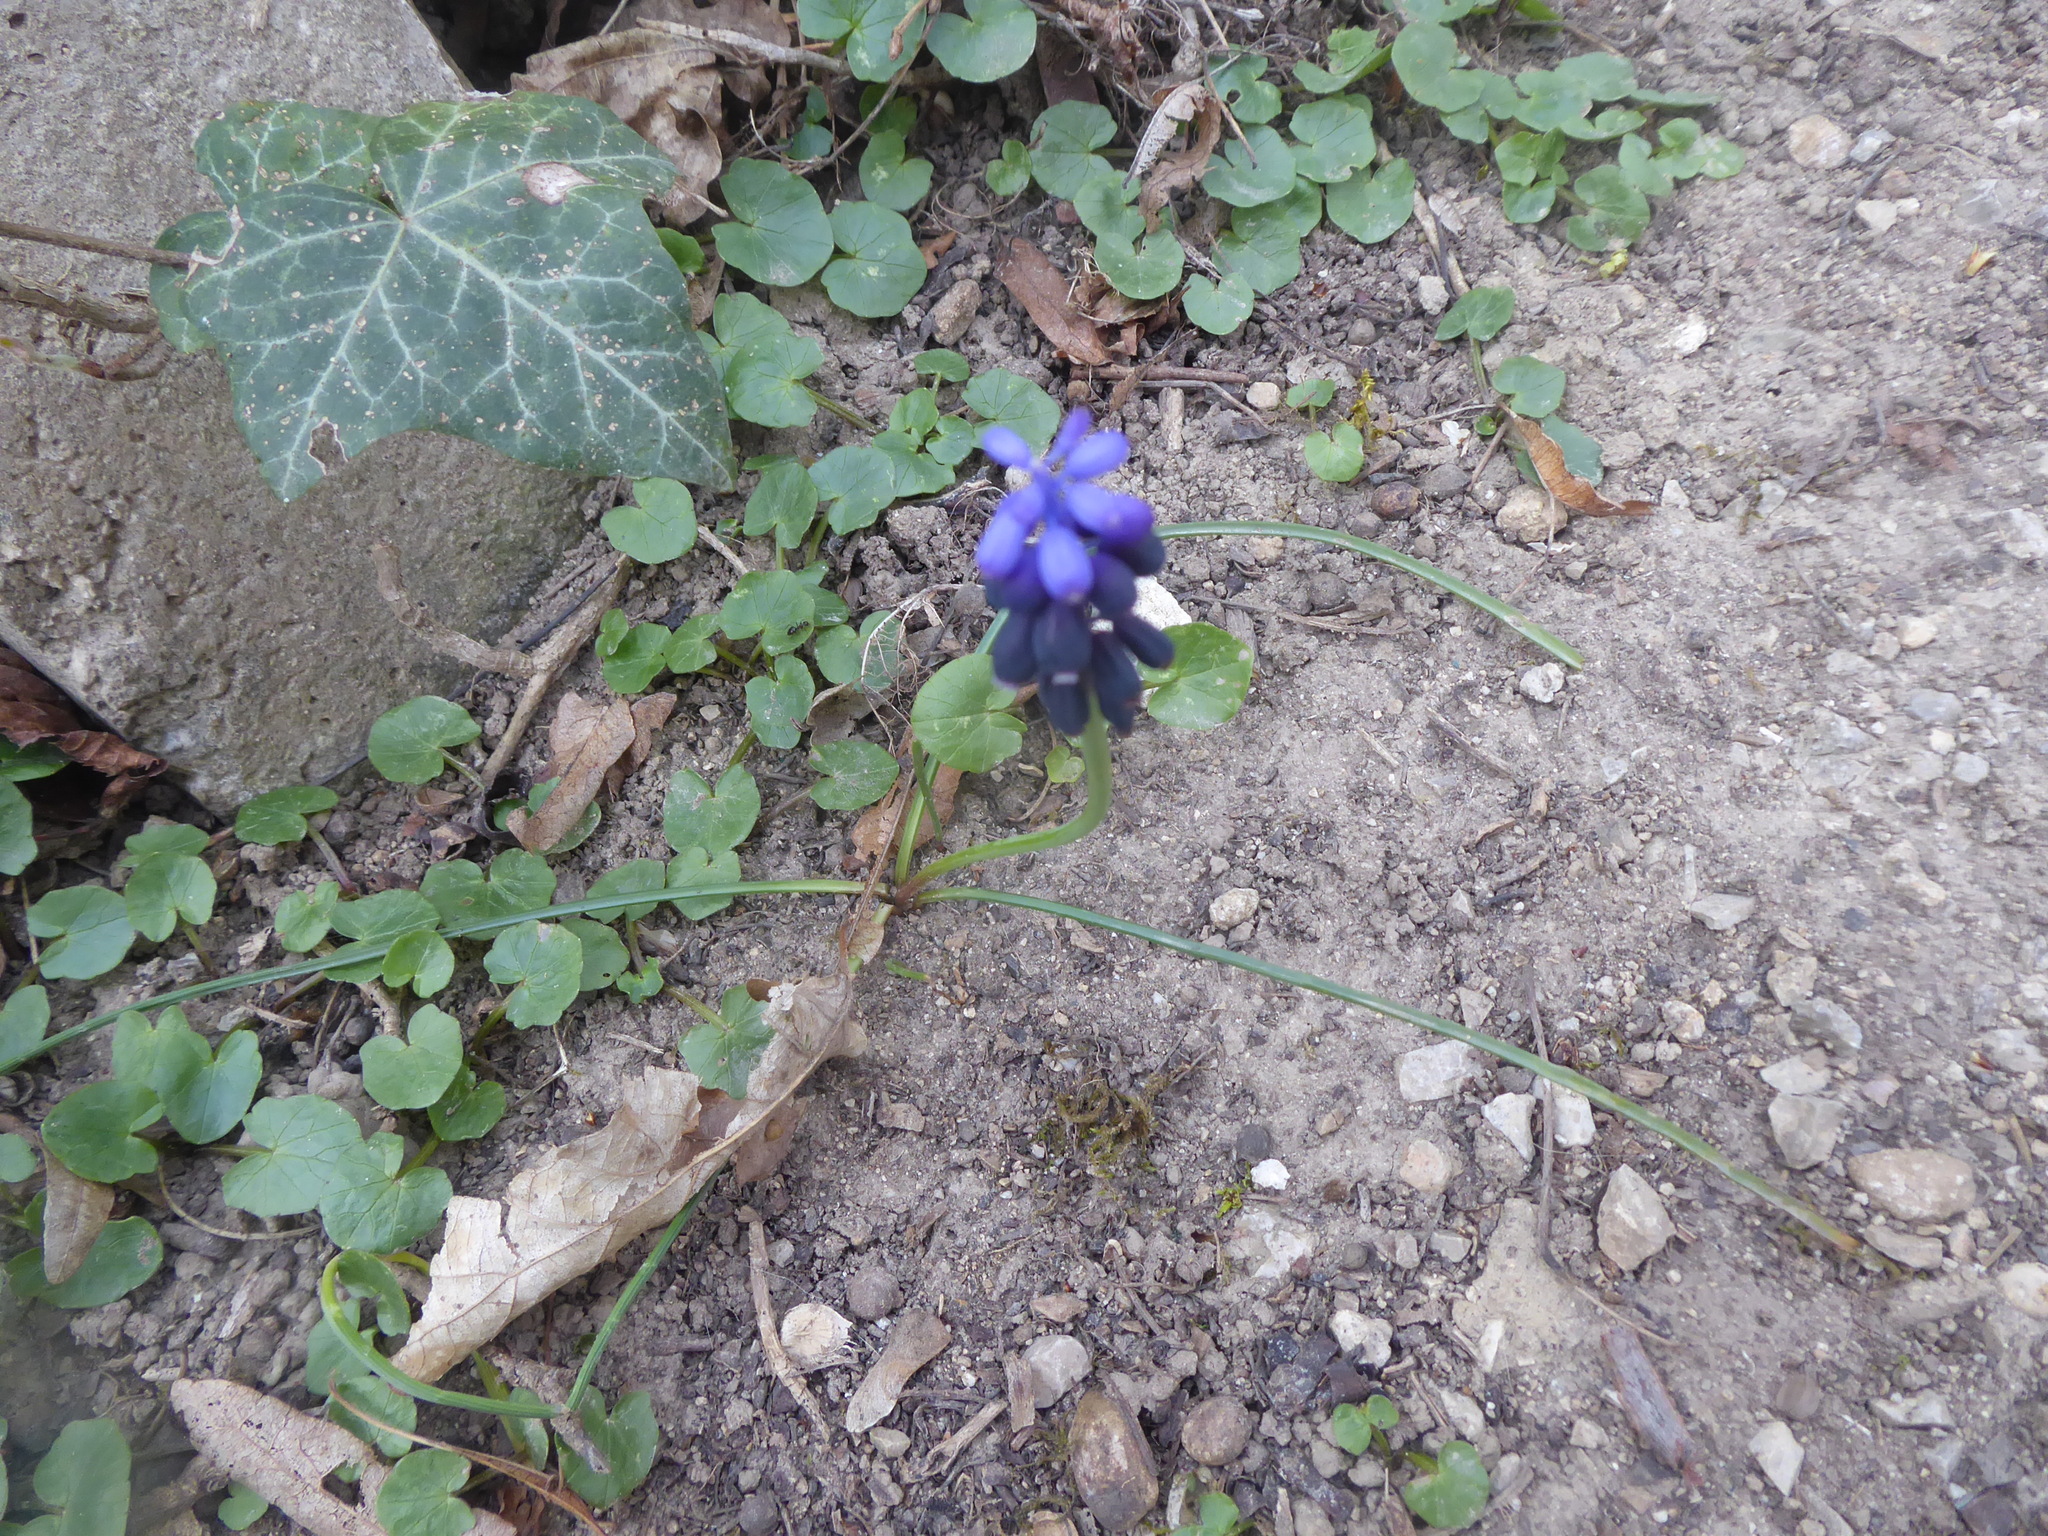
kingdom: Plantae
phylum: Tracheophyta
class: Liliopsida
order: Asparagales
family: Asparagaceae
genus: Muscari
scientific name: Muscari neglectum
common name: Grape-hyacinth
